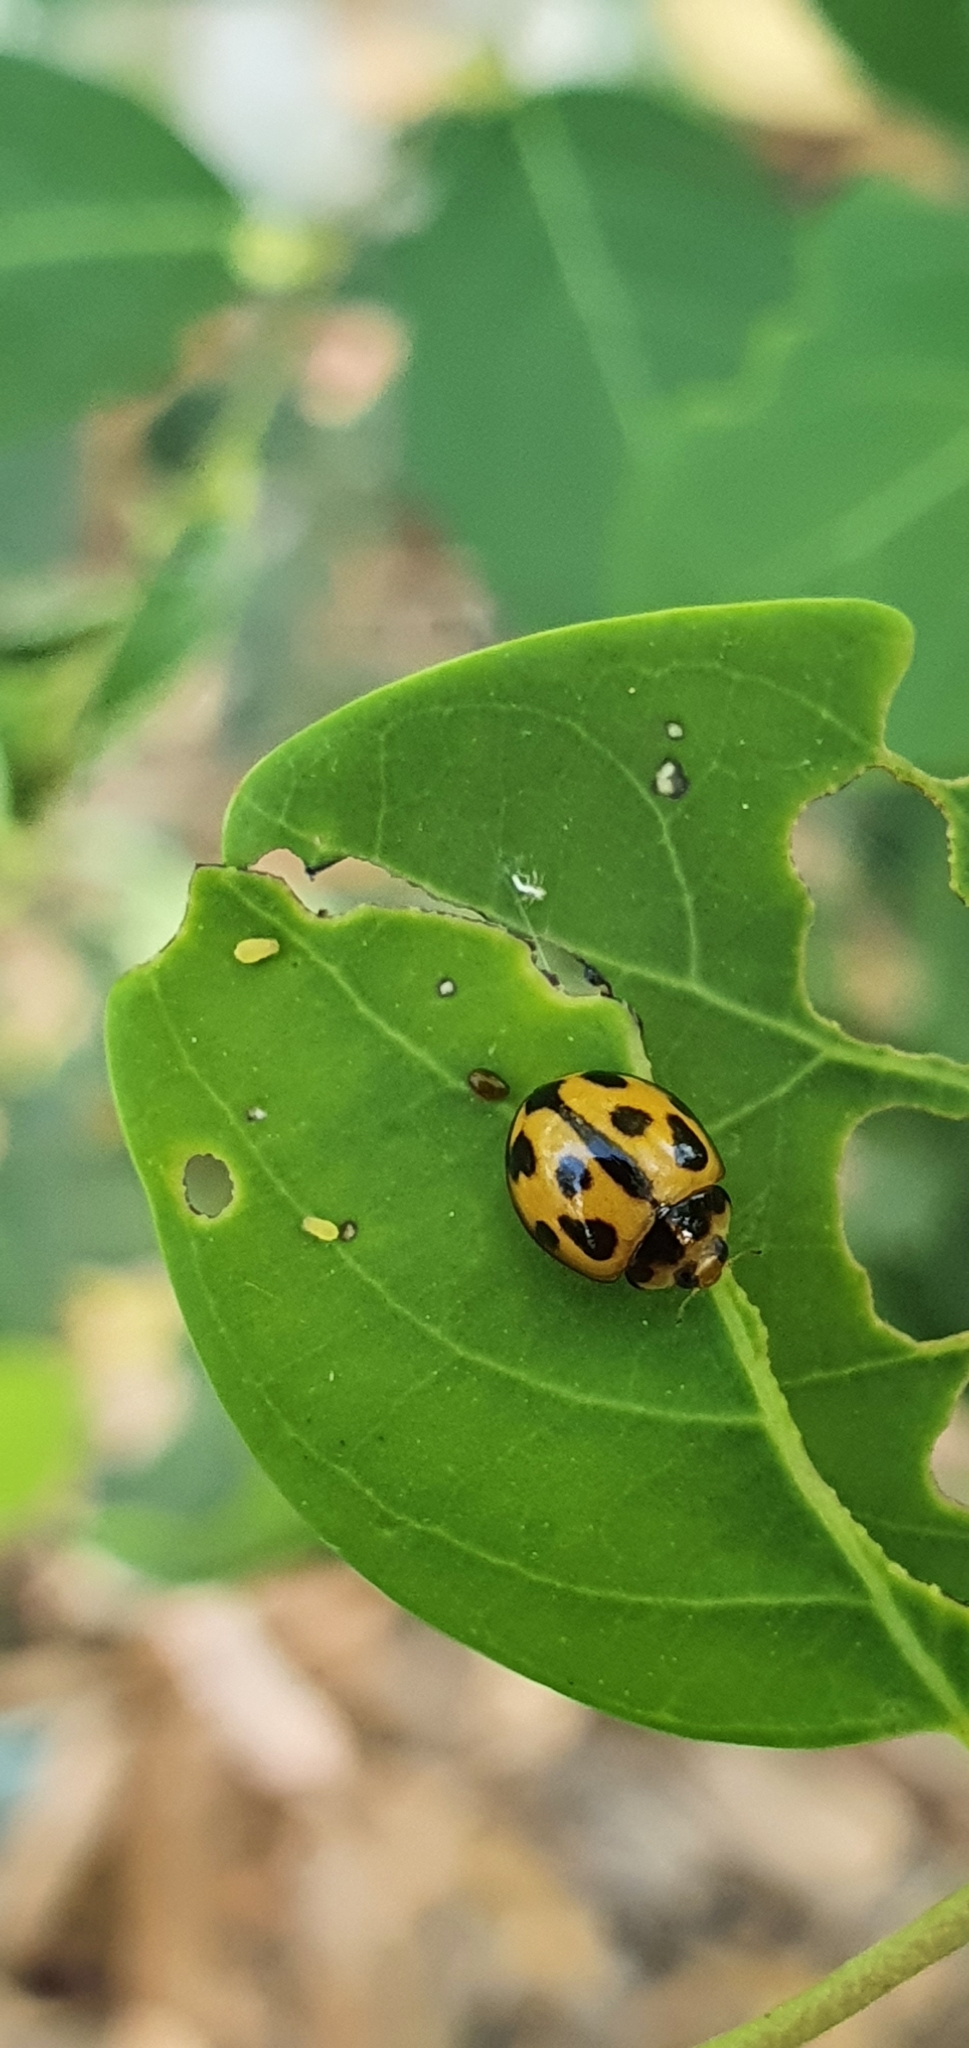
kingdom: Animalia
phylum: Arthropoda
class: Insecta
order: Coleoptera
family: Coccinellidae
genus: Coelophora
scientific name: Coelophora inaequalis
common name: Common australian lady beetle
